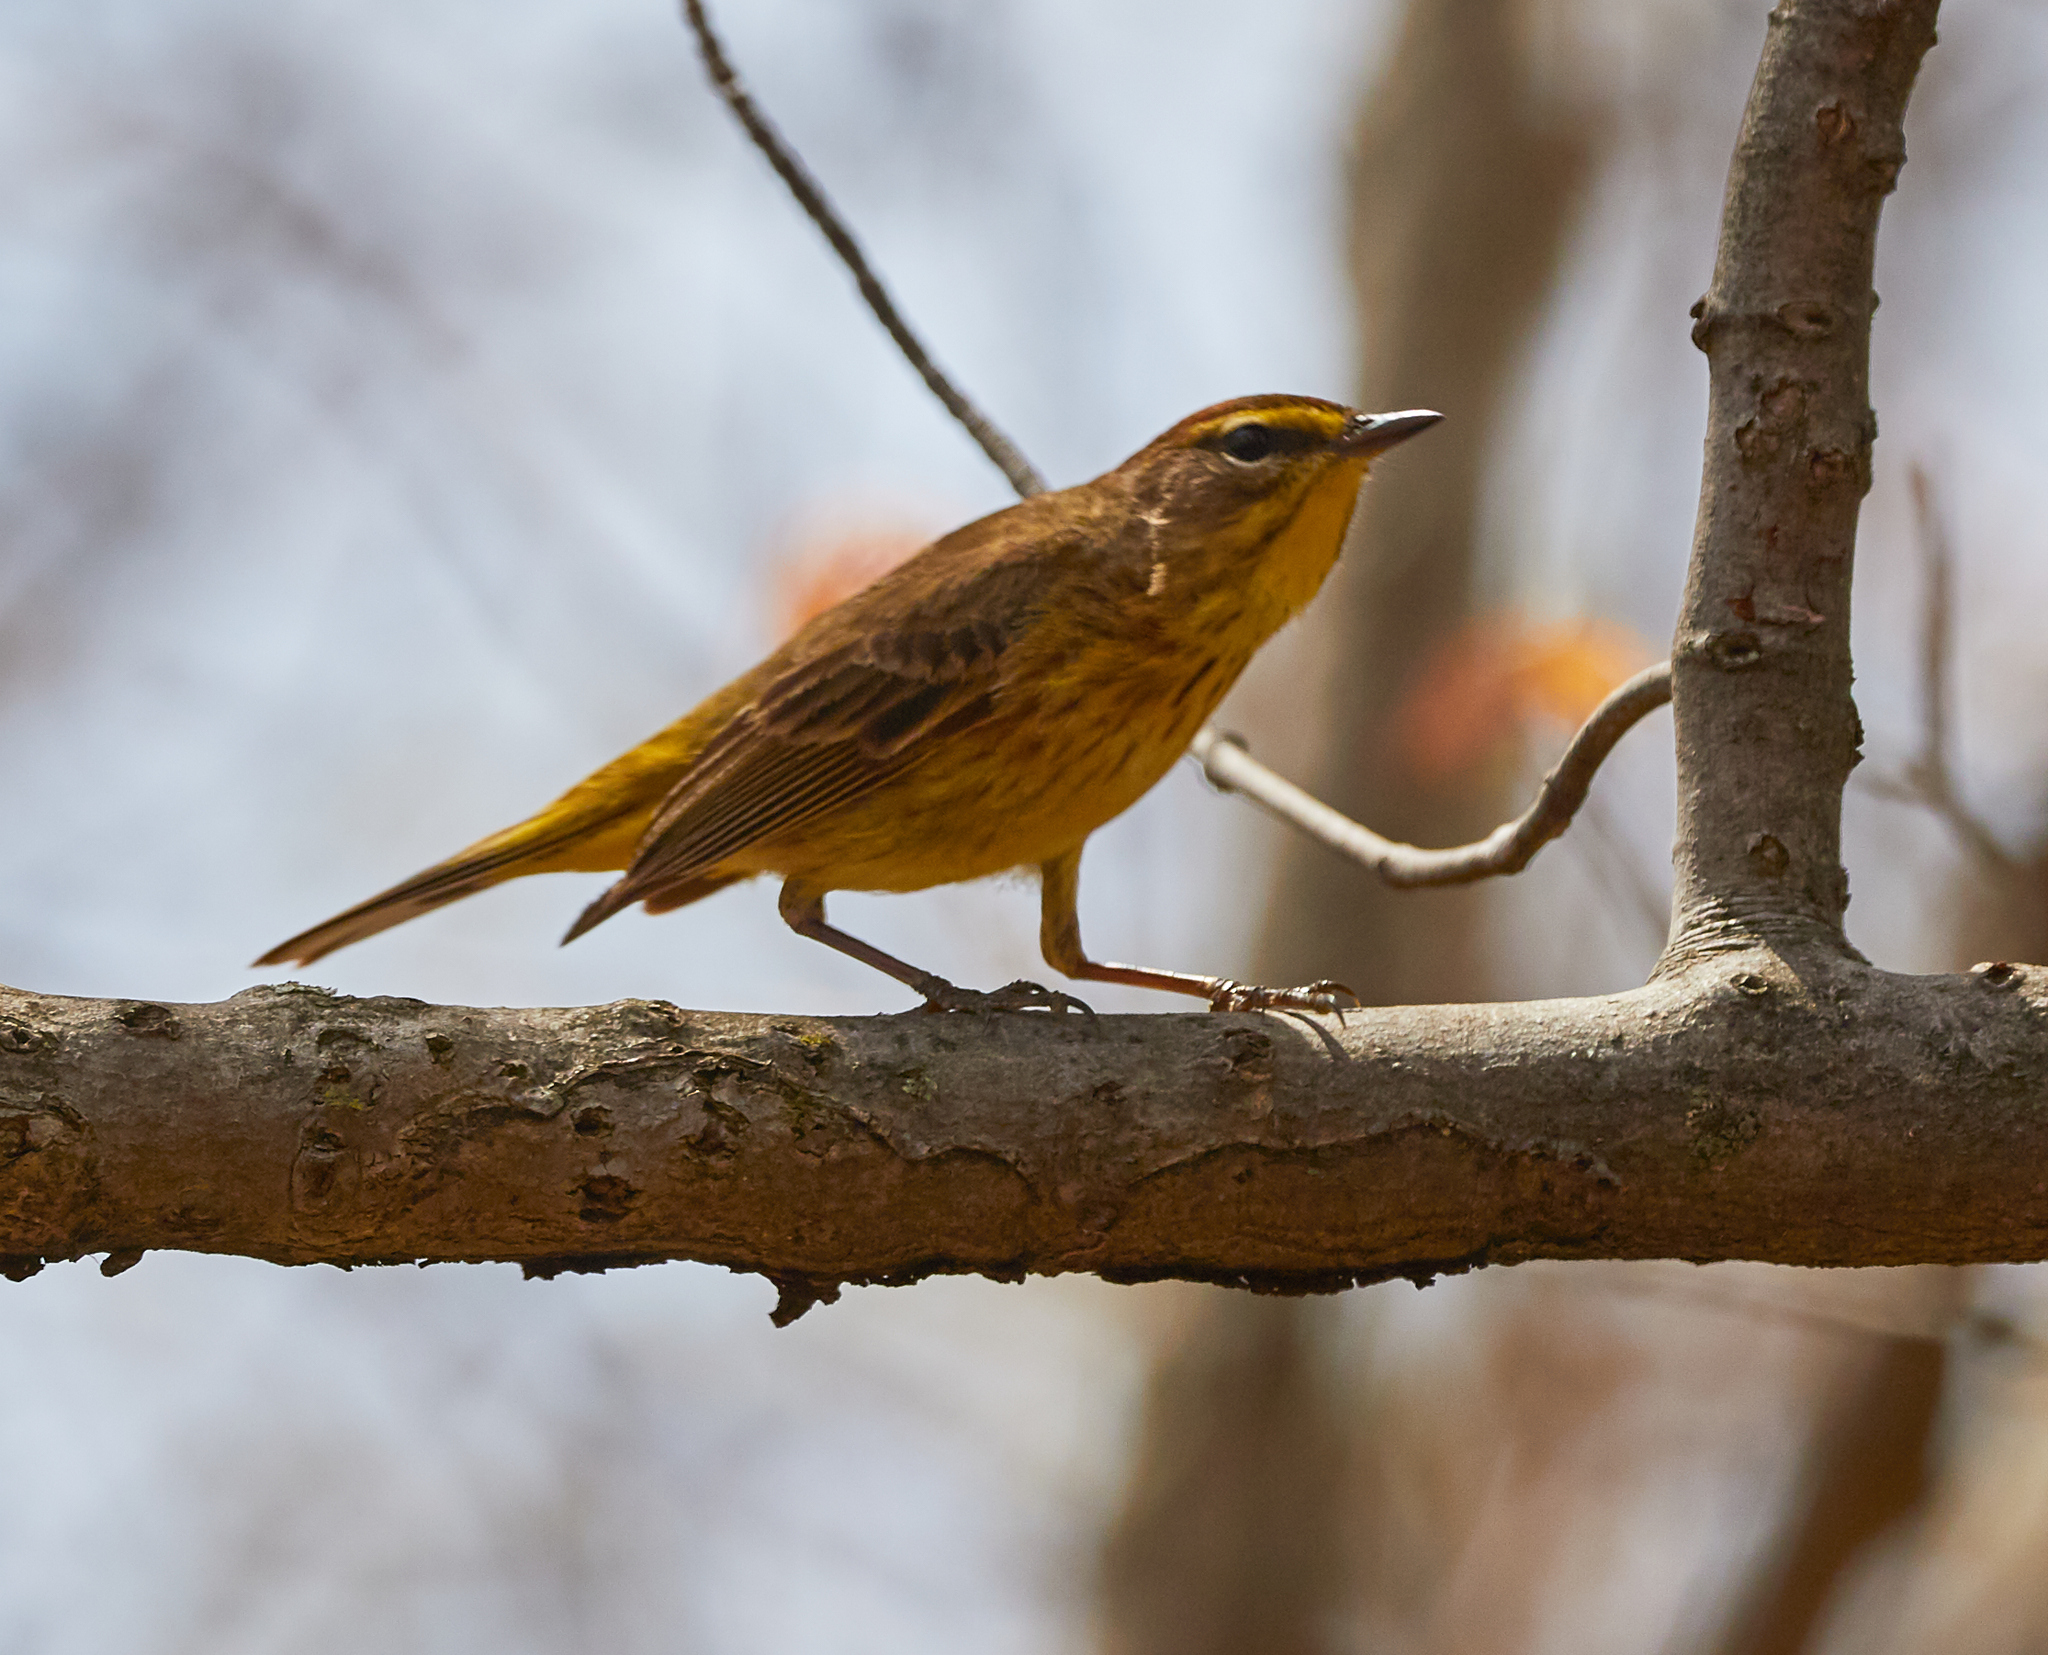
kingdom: Animalia
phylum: Chordata
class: Aves
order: Passeriformes
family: Parulidae
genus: Setophaga
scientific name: Setophaga palmarum
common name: Palm warbler
